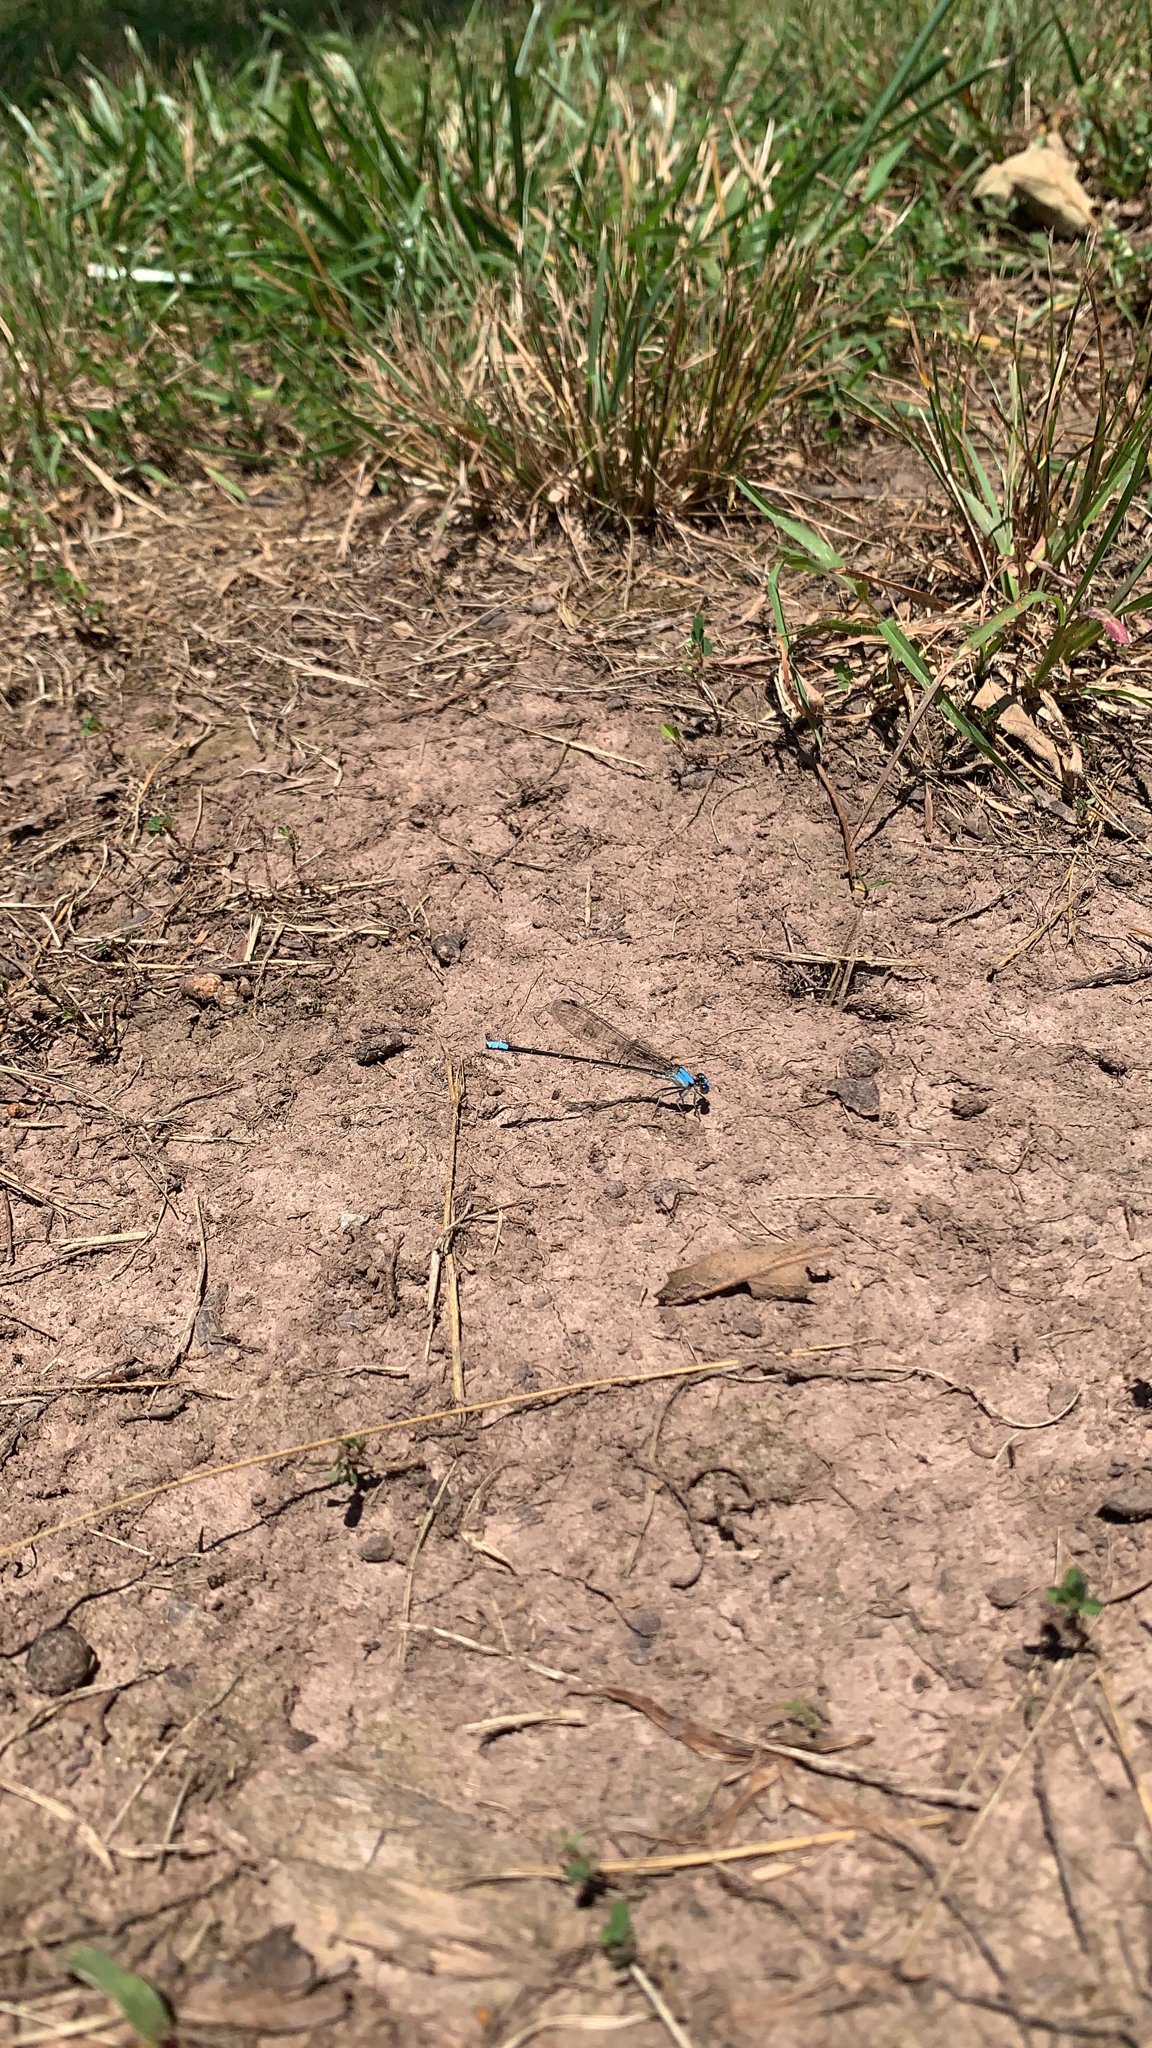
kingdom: Animalia
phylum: Arthropoda
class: Insecta
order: Odonata
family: Coenagrionidae
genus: Argia
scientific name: Argia apicalis
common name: Blue-fronted dancer
